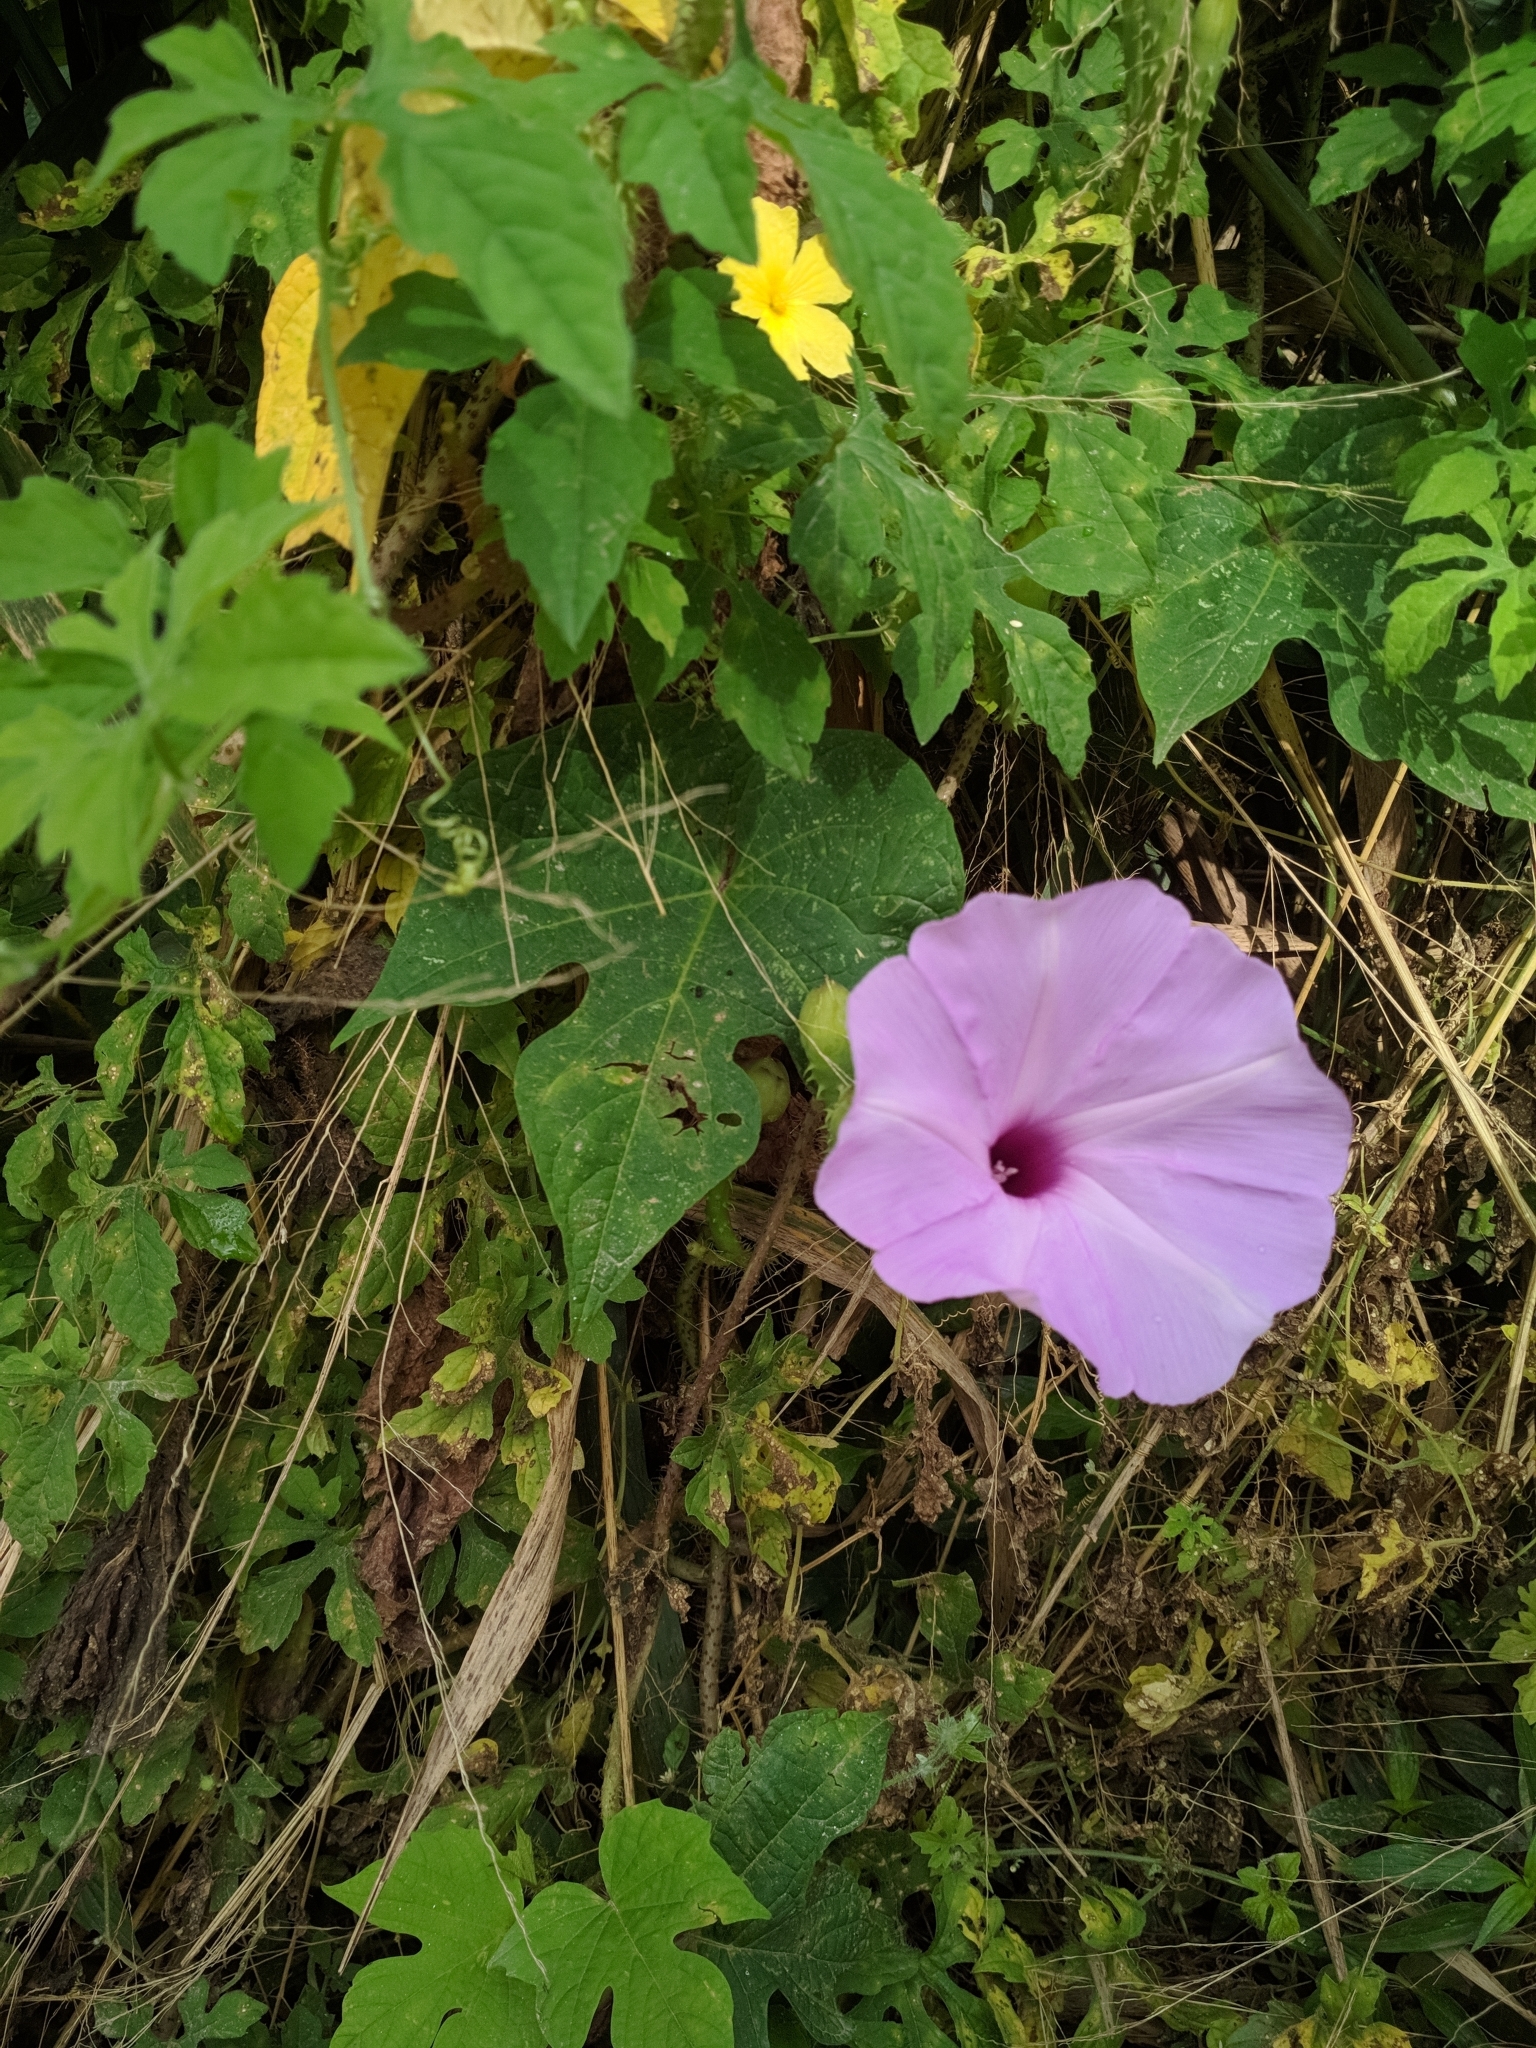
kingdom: Plantae
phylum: Tracheophyta
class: Magnoliopsida
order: Solanales
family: Convolvulaceae
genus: Ipomoea
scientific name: Ipomoea setosa
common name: Brazilian morning-glory
